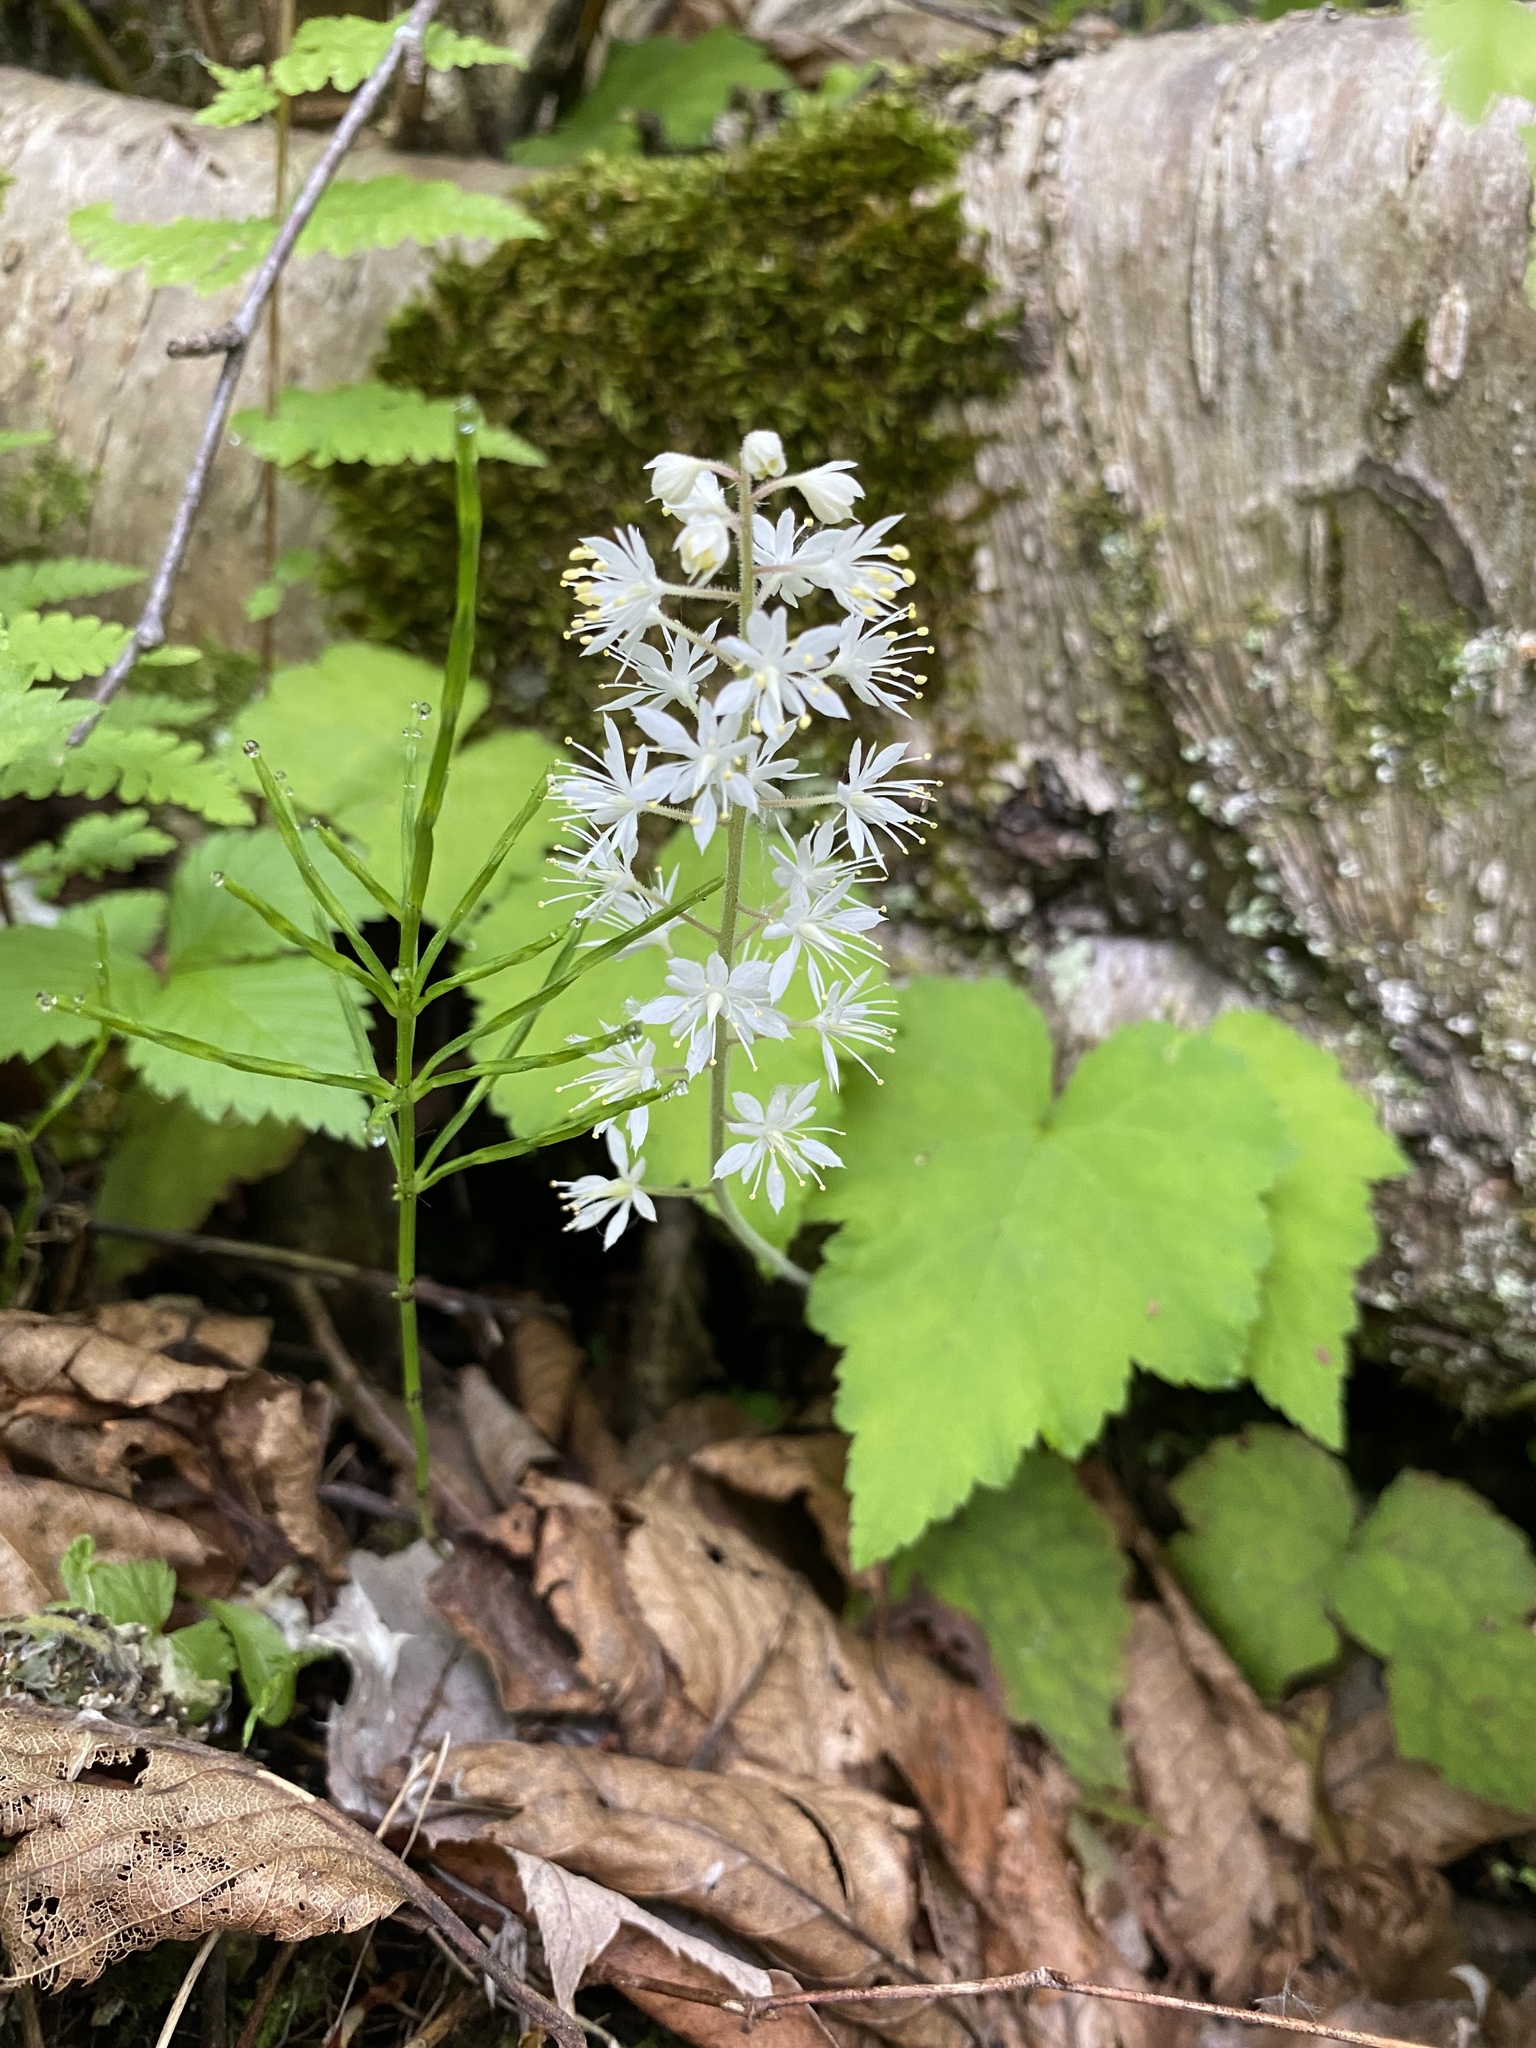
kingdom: Plantae
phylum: Tracheophyta
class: Magnoliopsida
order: Saxifragales
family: Saxifragaceae
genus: Tiarella
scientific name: Tiarella stolonifera
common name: Stoloniferous foamflower
